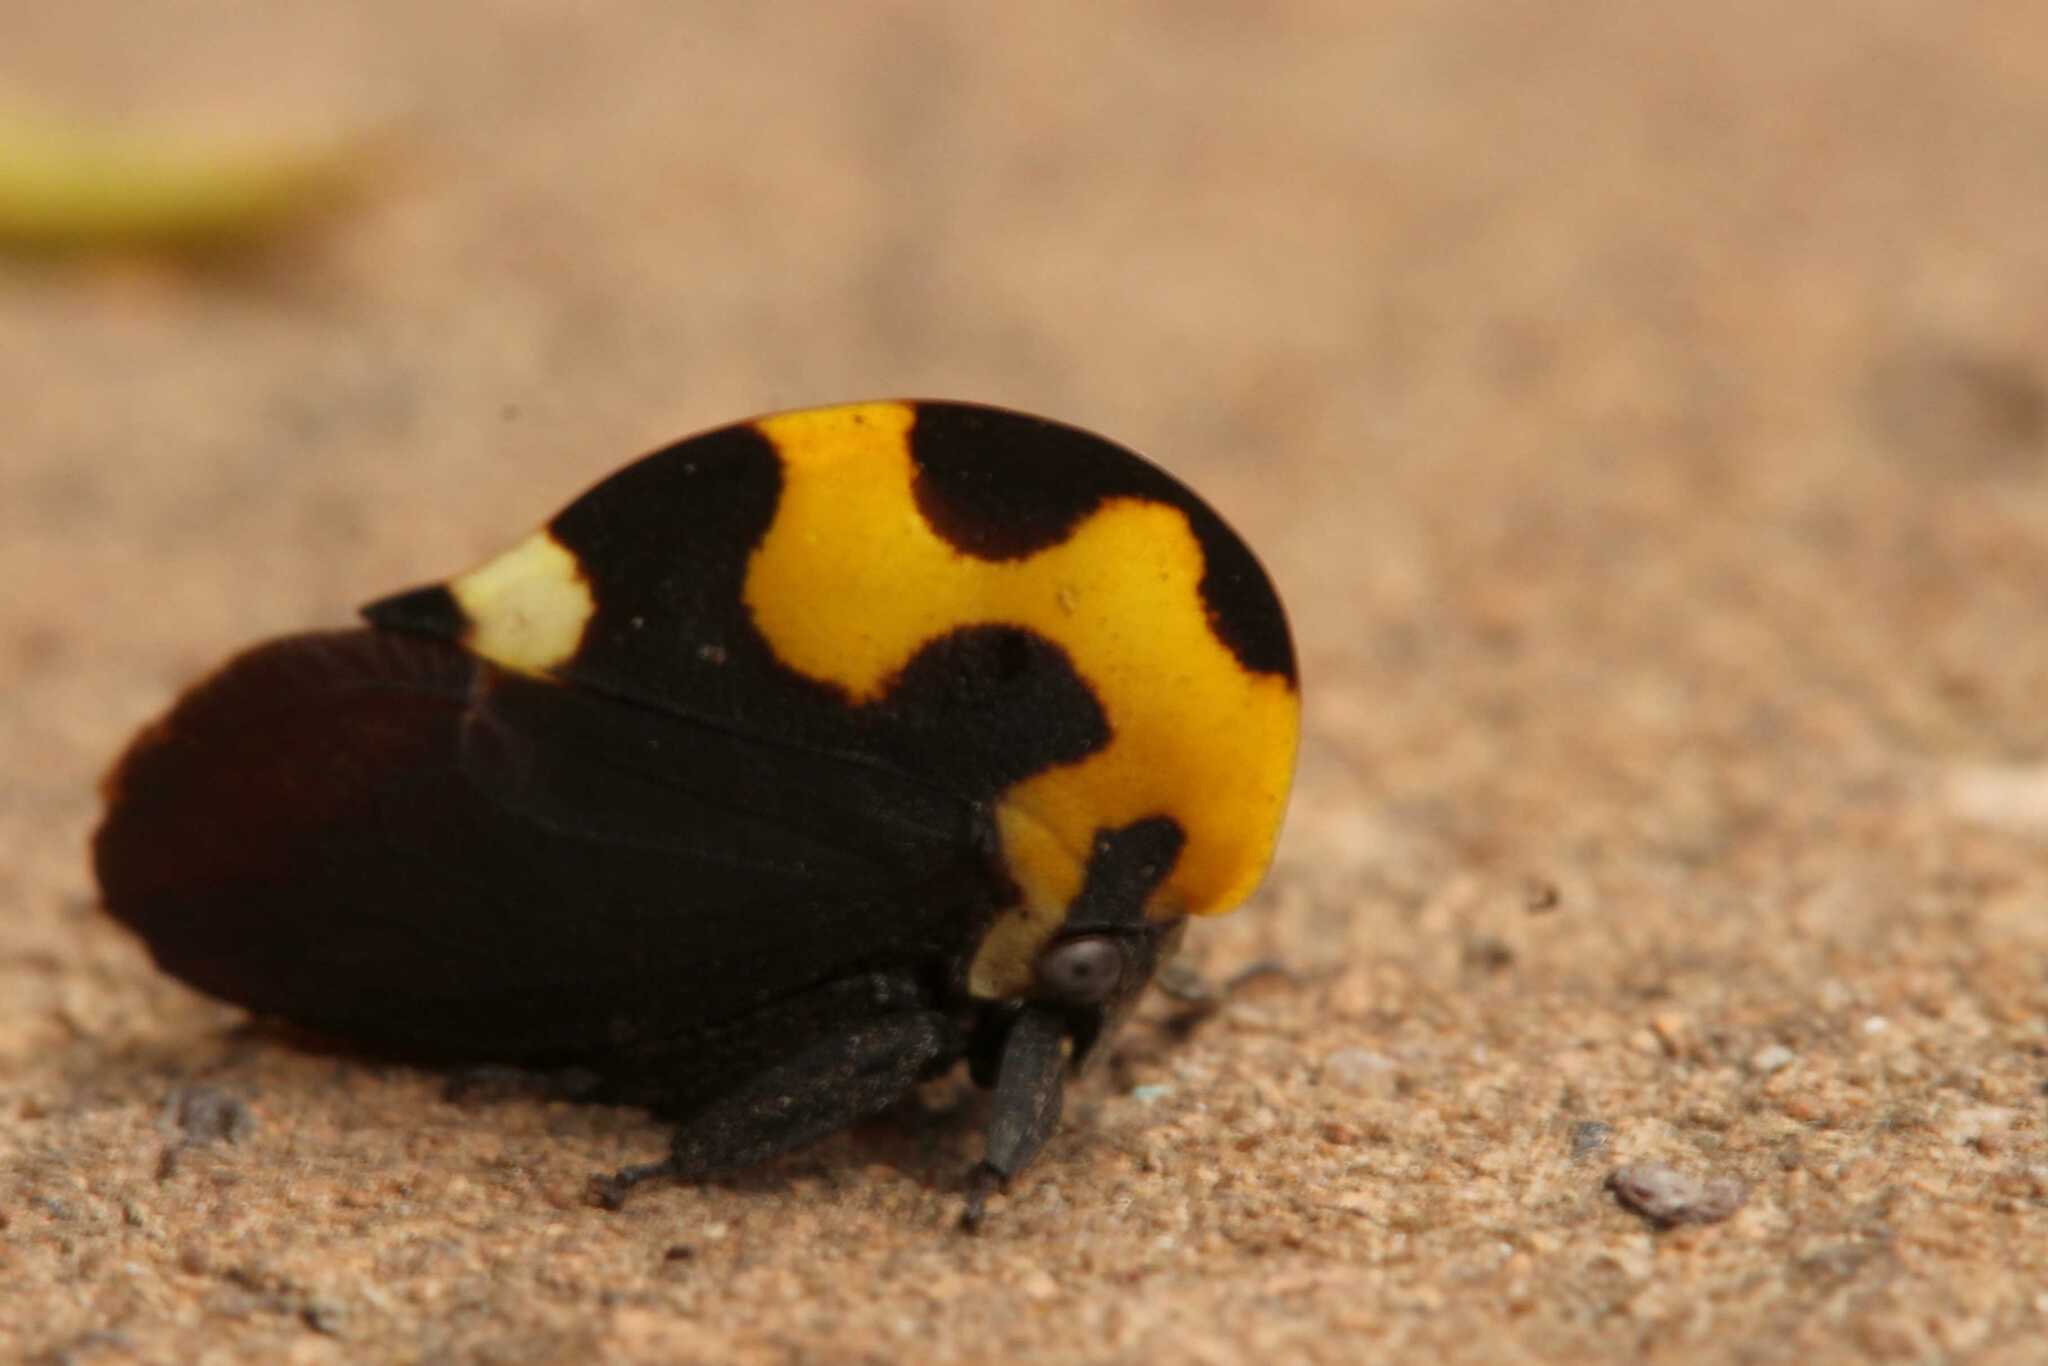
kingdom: Animalia
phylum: Arthropoda
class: Insecta
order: Hemiptera
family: Membracidae
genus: Membracis
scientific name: Membracis mexicana
